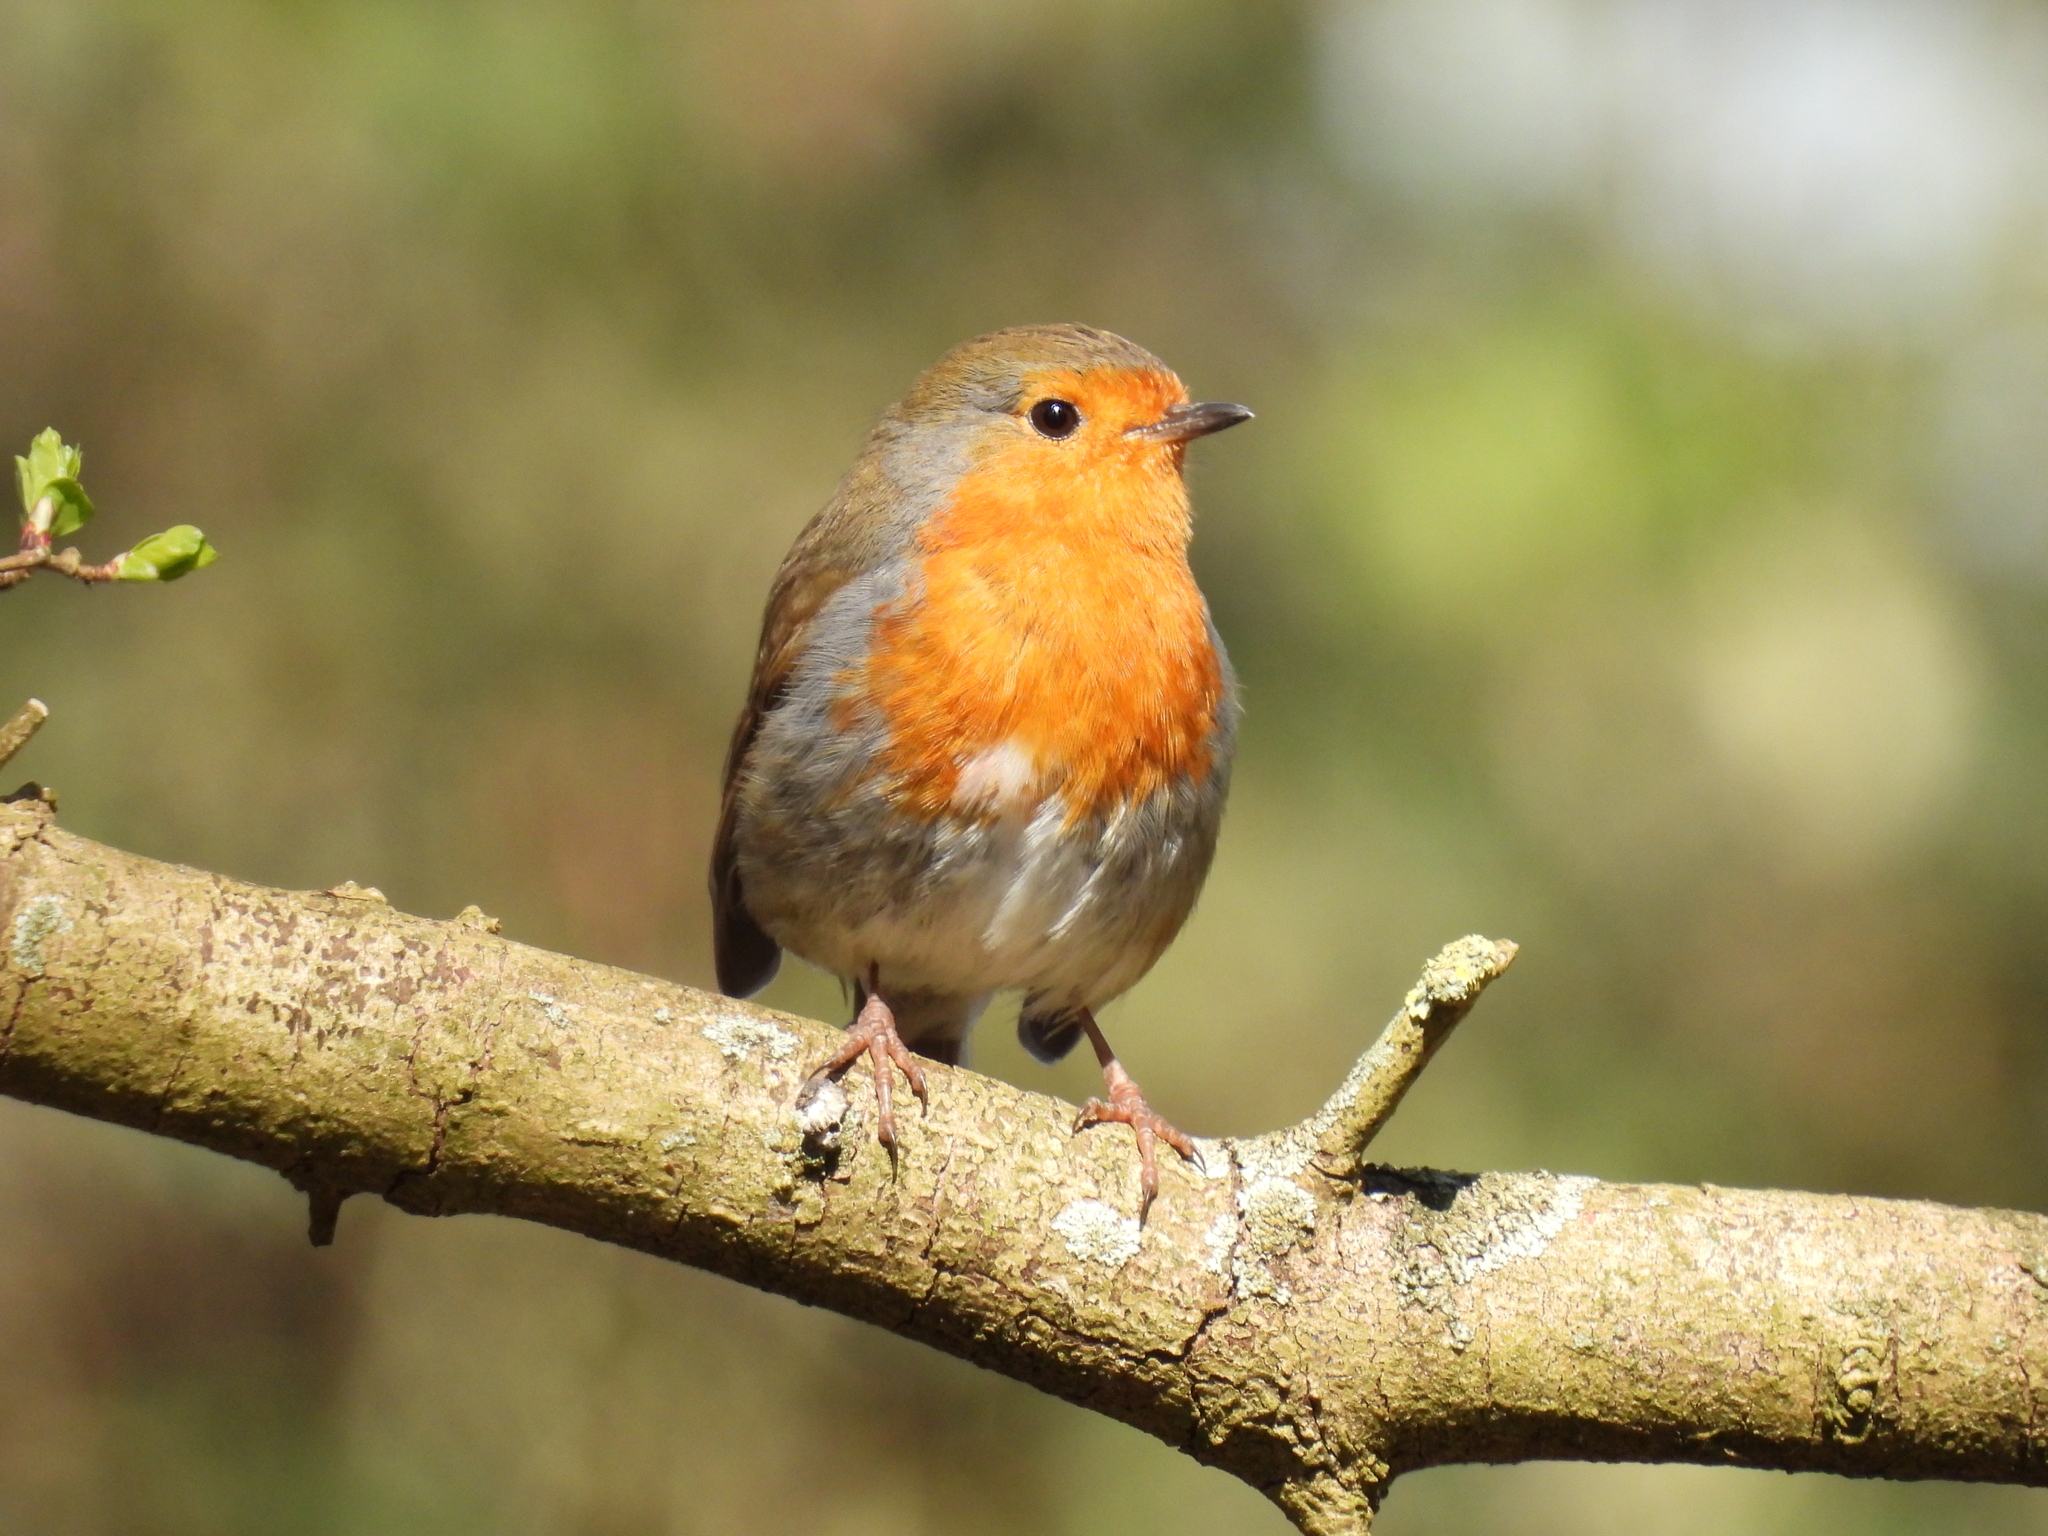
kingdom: Animalia
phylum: Chordata
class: Aves
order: Passeriformes
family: Muscicapidae
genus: Erithacus
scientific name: Erithacus rubecula
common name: European robin
